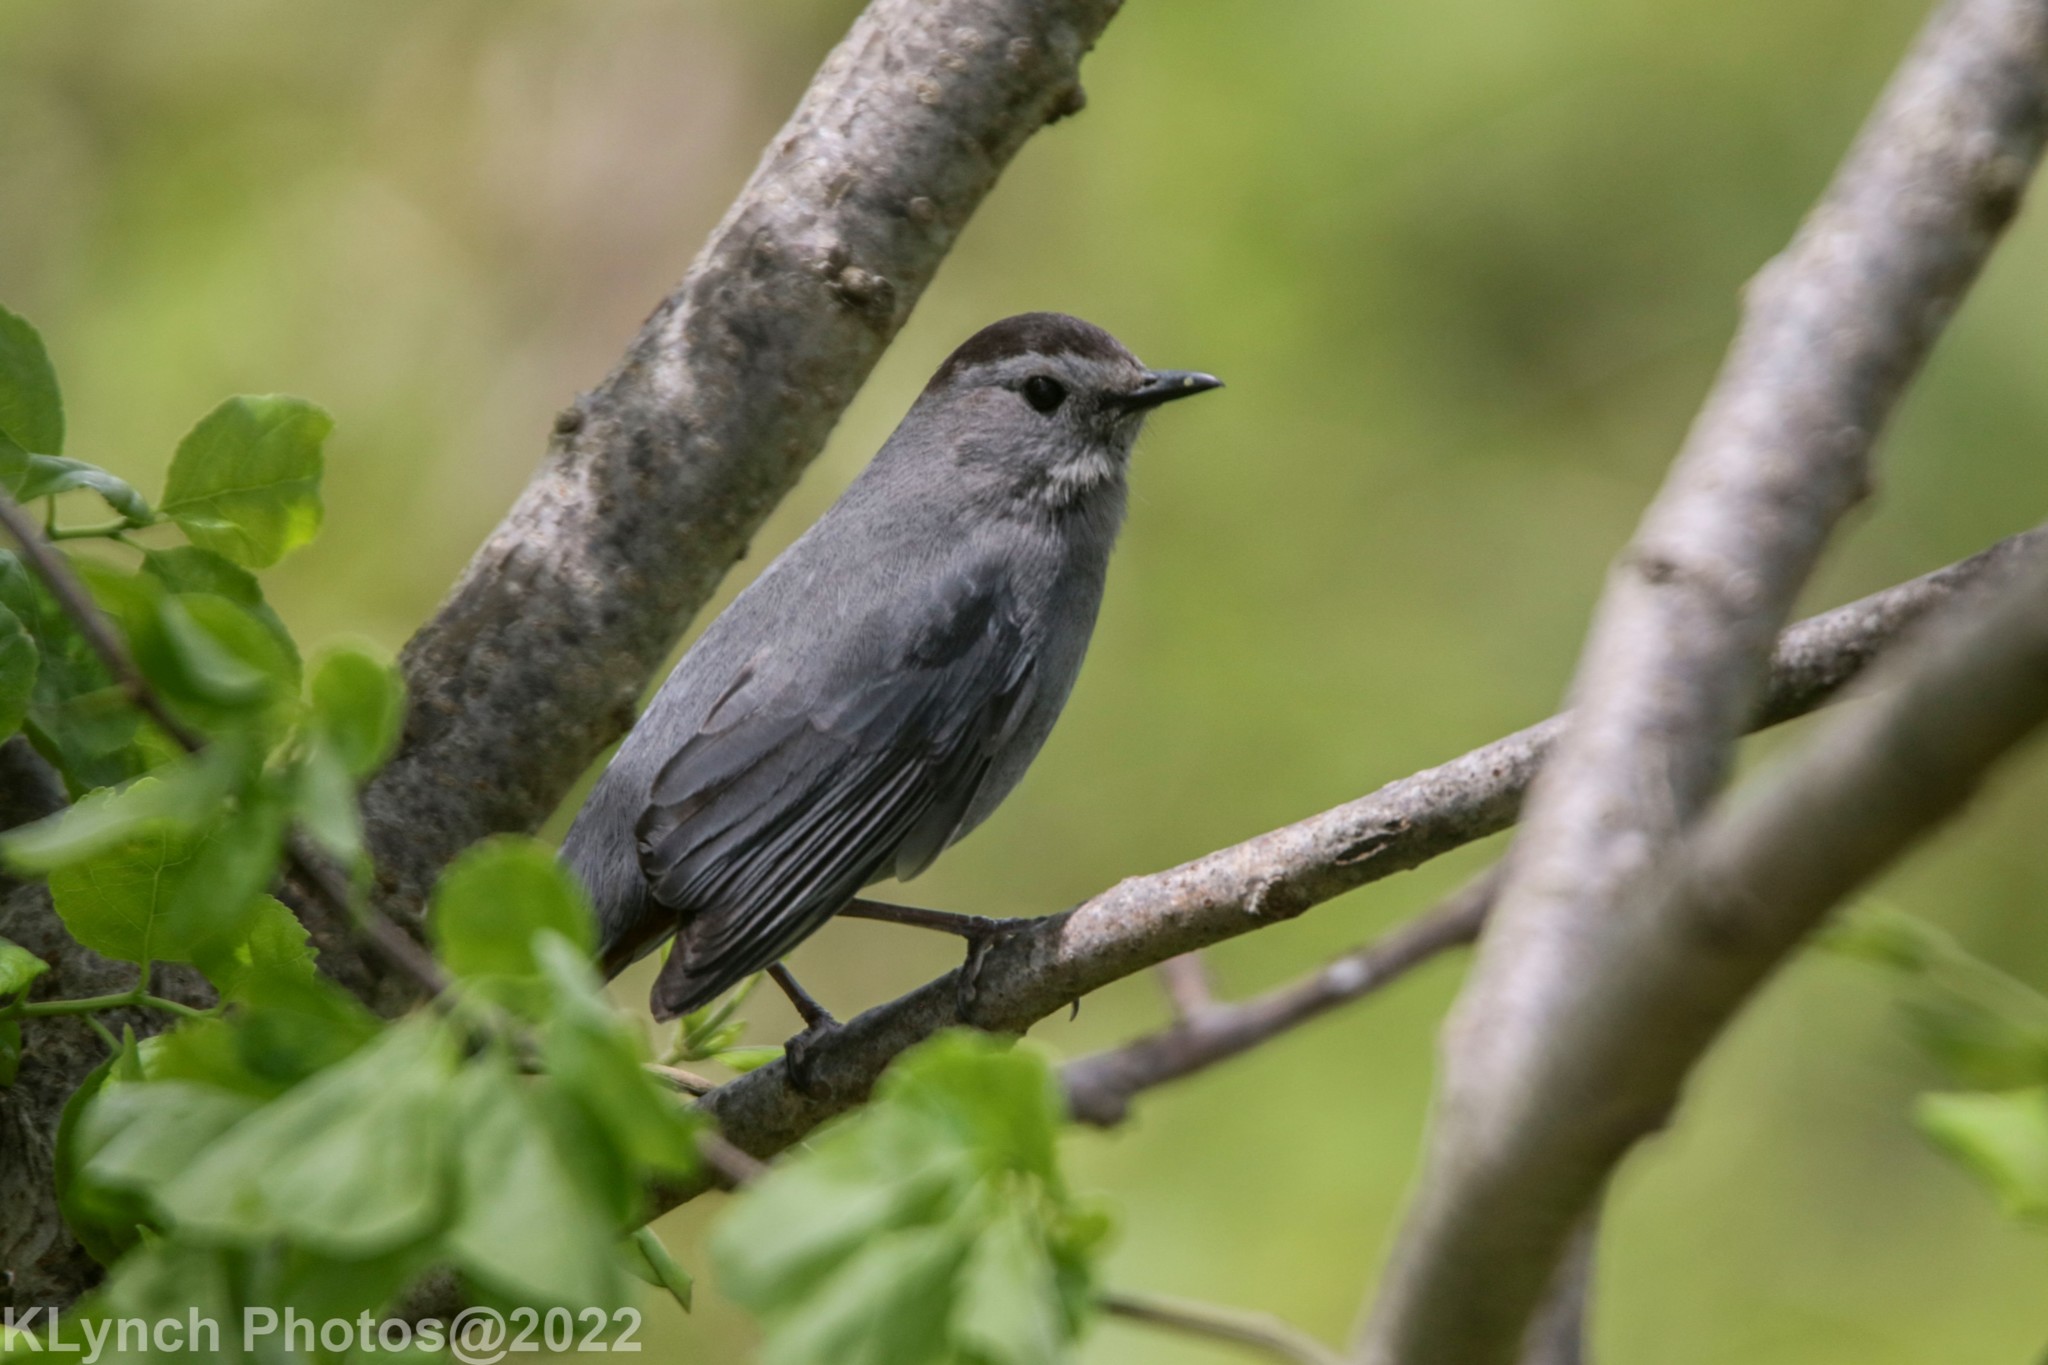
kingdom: Animalia
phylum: Chordata
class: Aves
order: Passeriformes
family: Mimidae
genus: Dumetella
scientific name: Dumetella carolinensis
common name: Gray catbird
